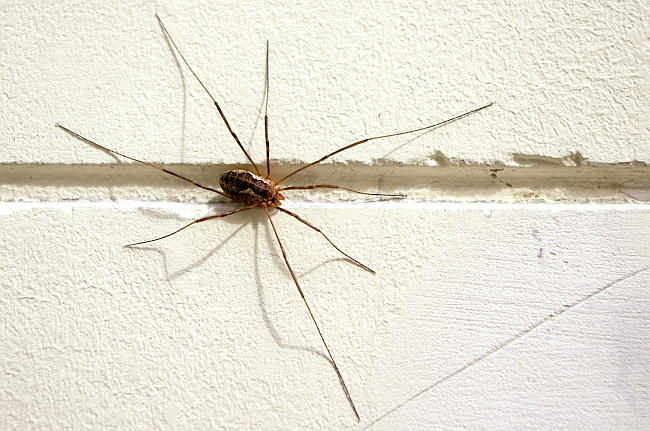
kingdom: Animalia
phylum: Arthropoda
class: Arachnida
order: Opiliones
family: Phalangiidae
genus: Phalangium
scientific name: Phalangium opilio
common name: Daddy longleg
